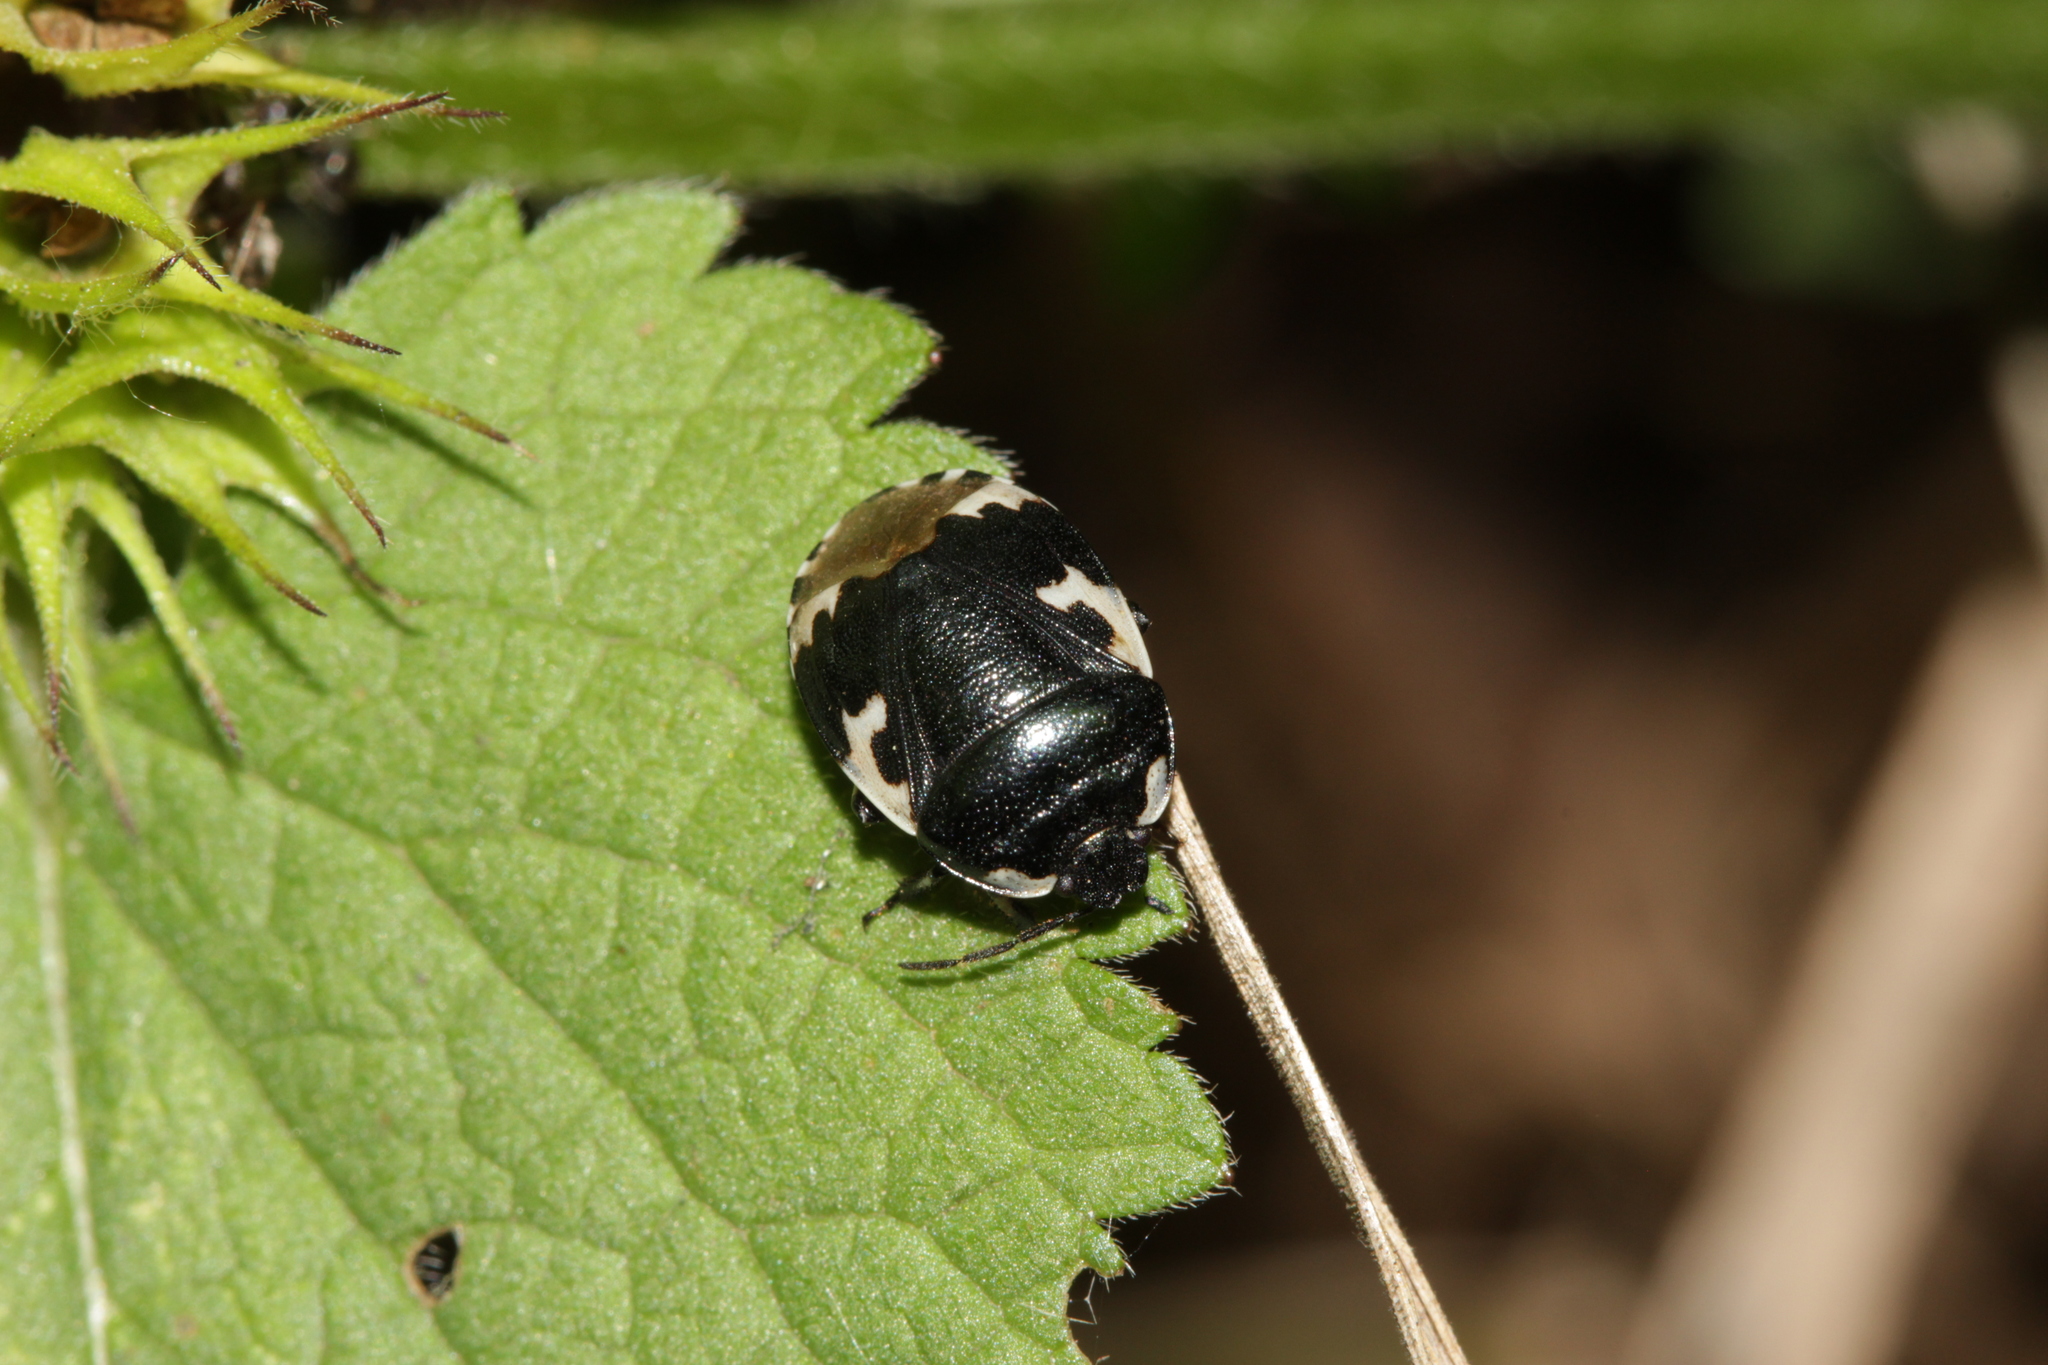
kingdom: Animalia
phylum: Arthropoda
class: Insecta
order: Hemiptera
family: Cydnidae
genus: Tritomegas
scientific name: Tritomegas bicolor
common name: Pied shieldbug
